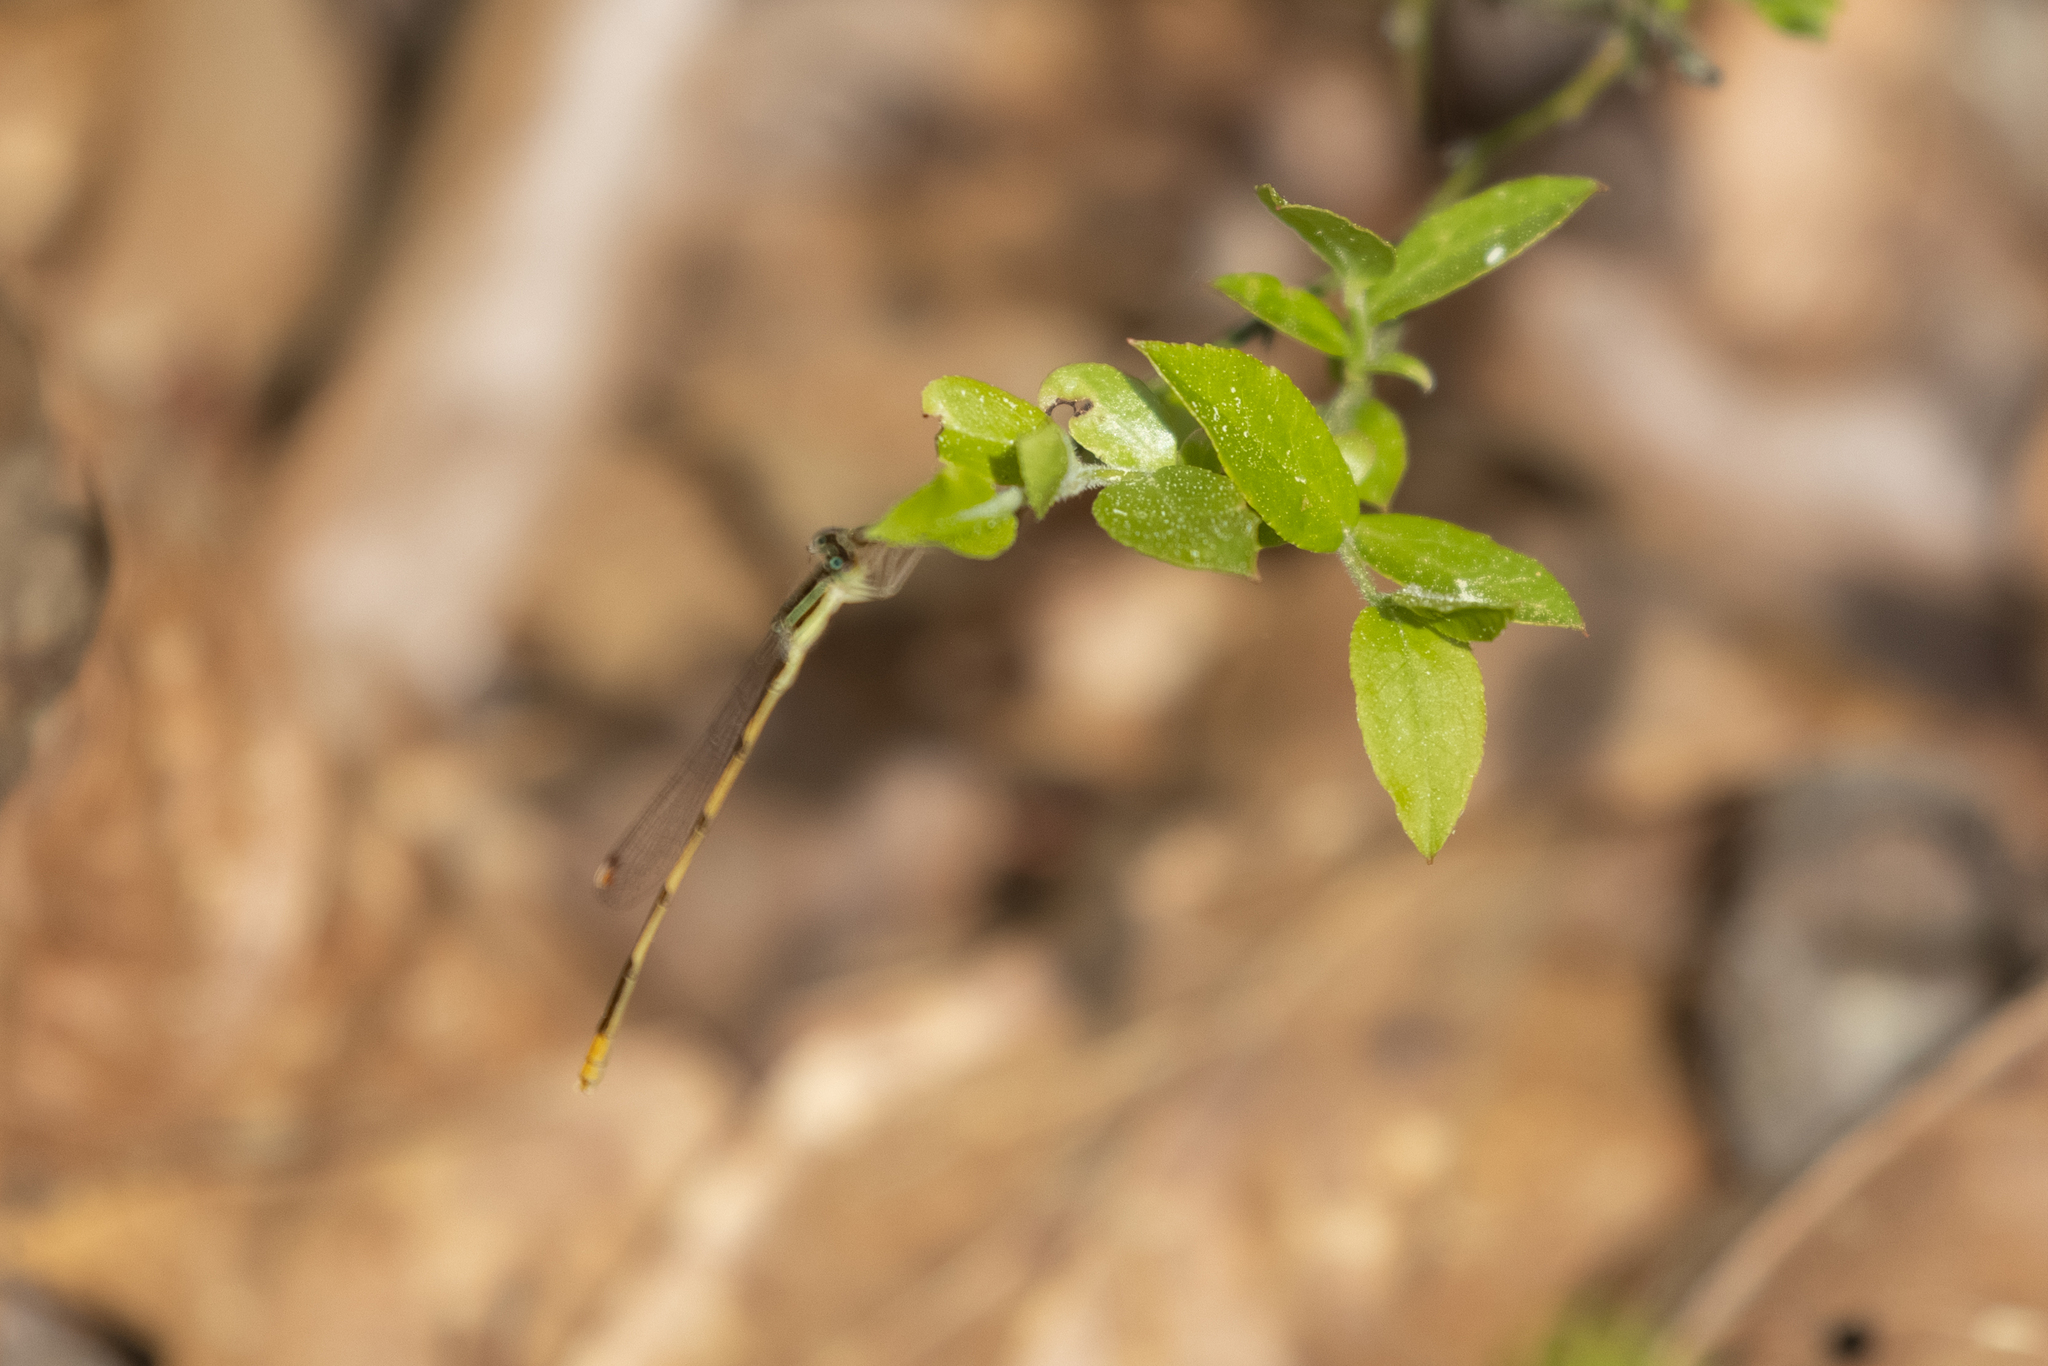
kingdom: Animalia
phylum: Arthropoda
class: Insecta
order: Odonata
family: Coenagrionidae
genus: Ischnura
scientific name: Ischnura hastata
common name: Citrine forktail
